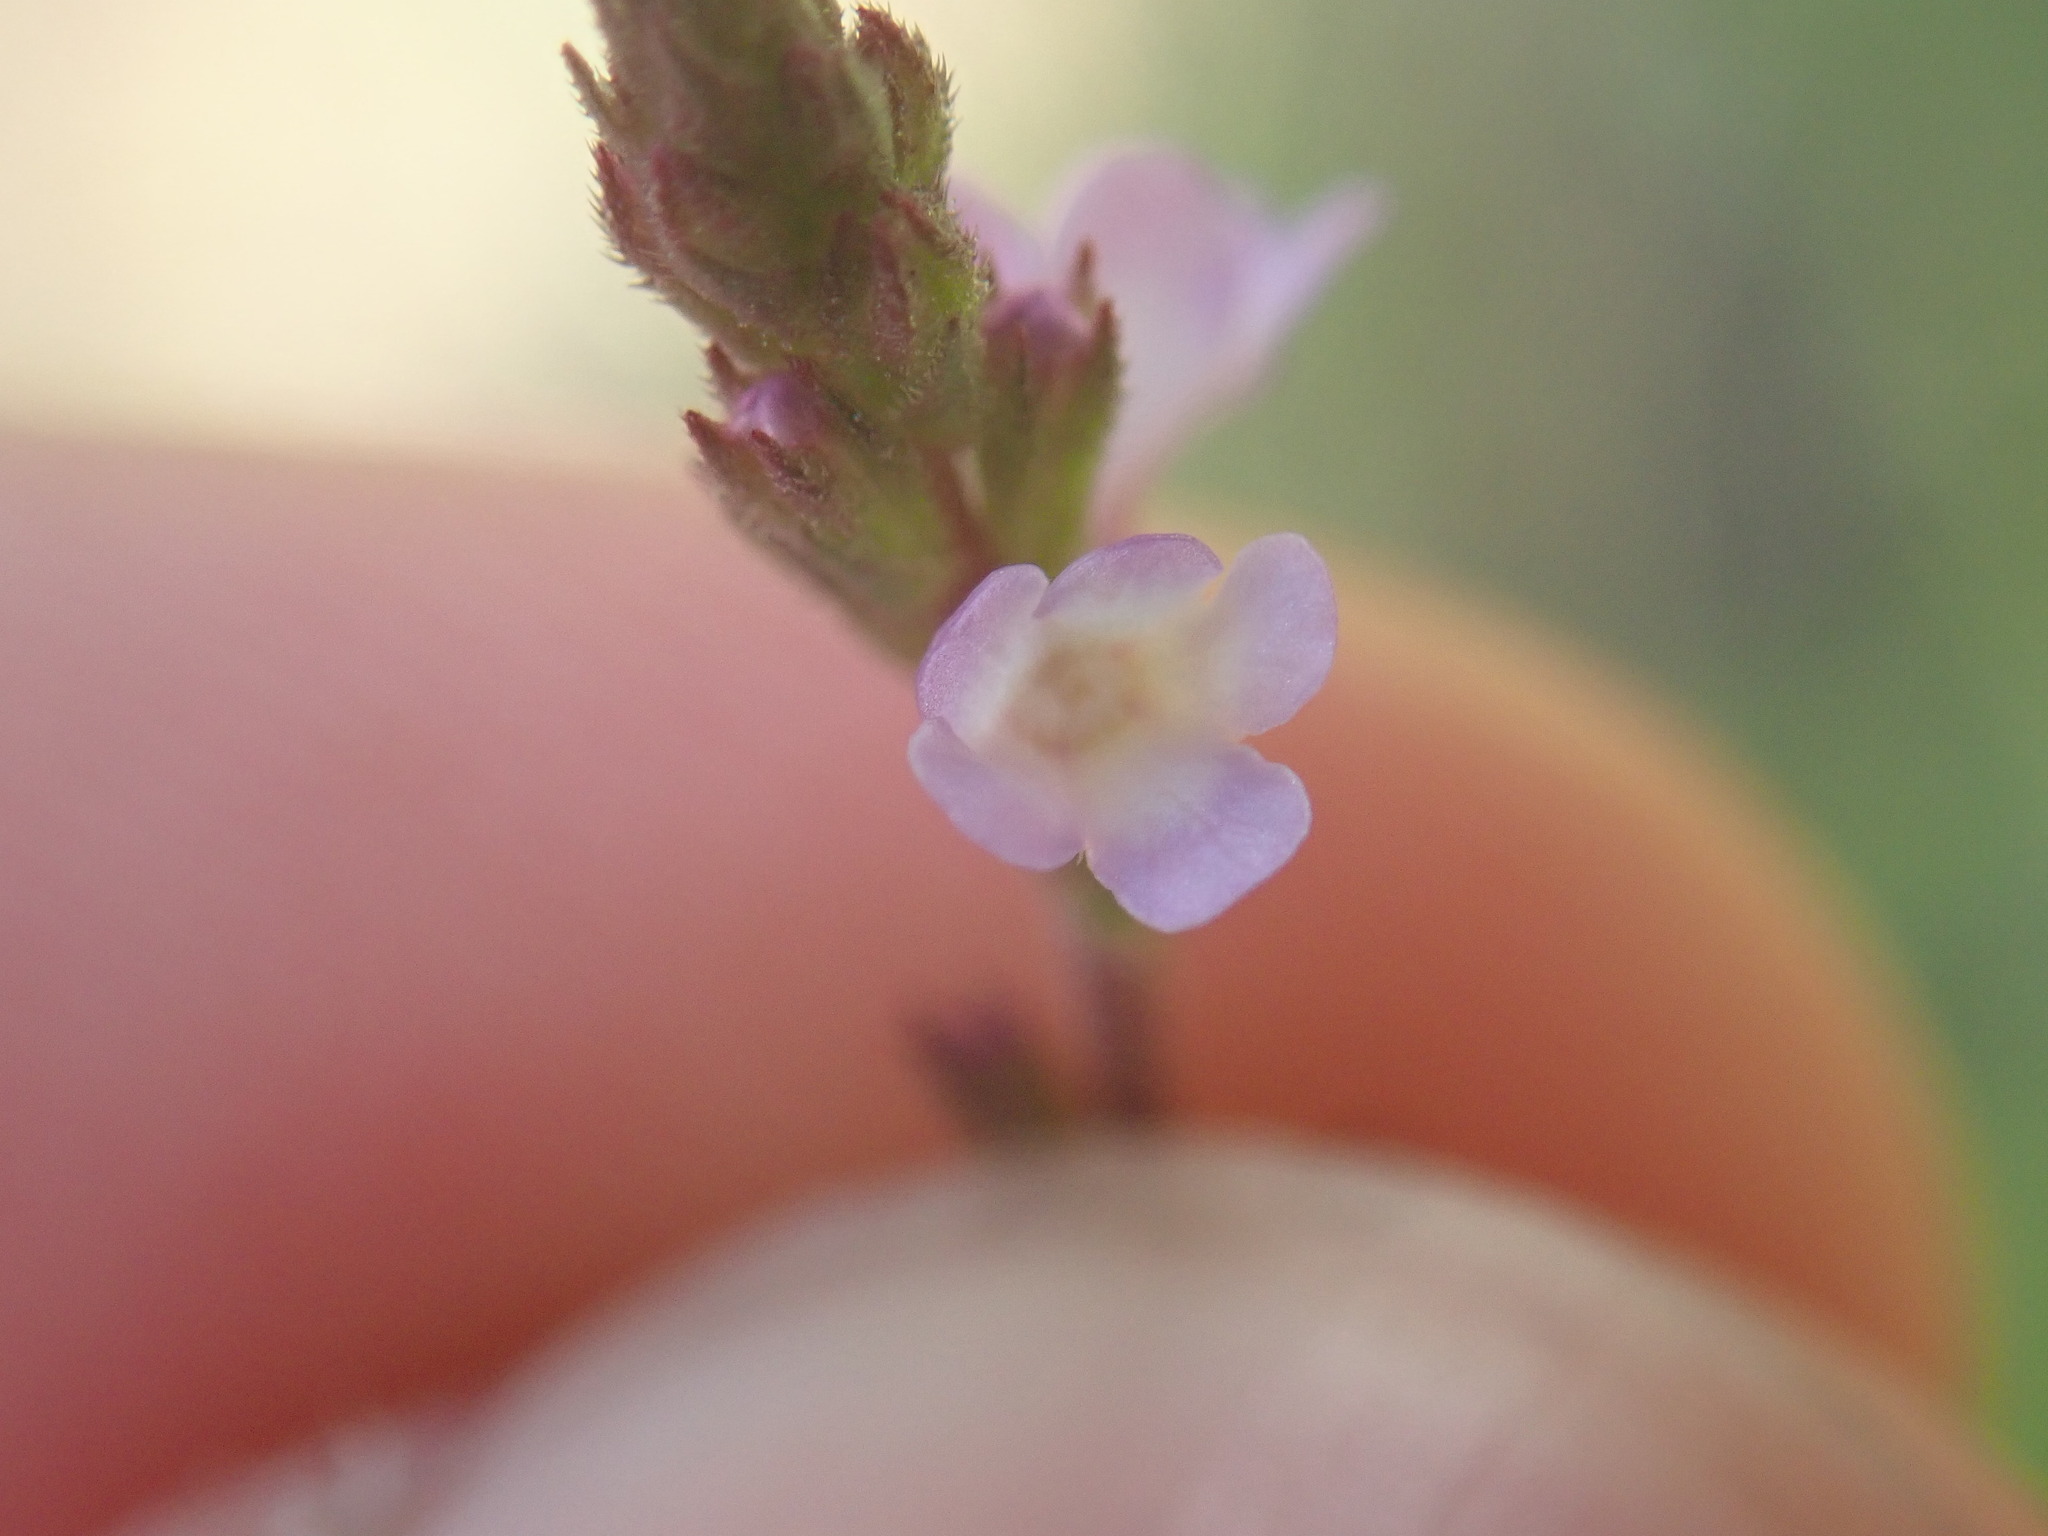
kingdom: Plantae
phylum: Tracheophyta
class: Magnoliopsida
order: Lamiales
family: Verbenaceae
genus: Verbena
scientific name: Verbena officinalis
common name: Vervain
